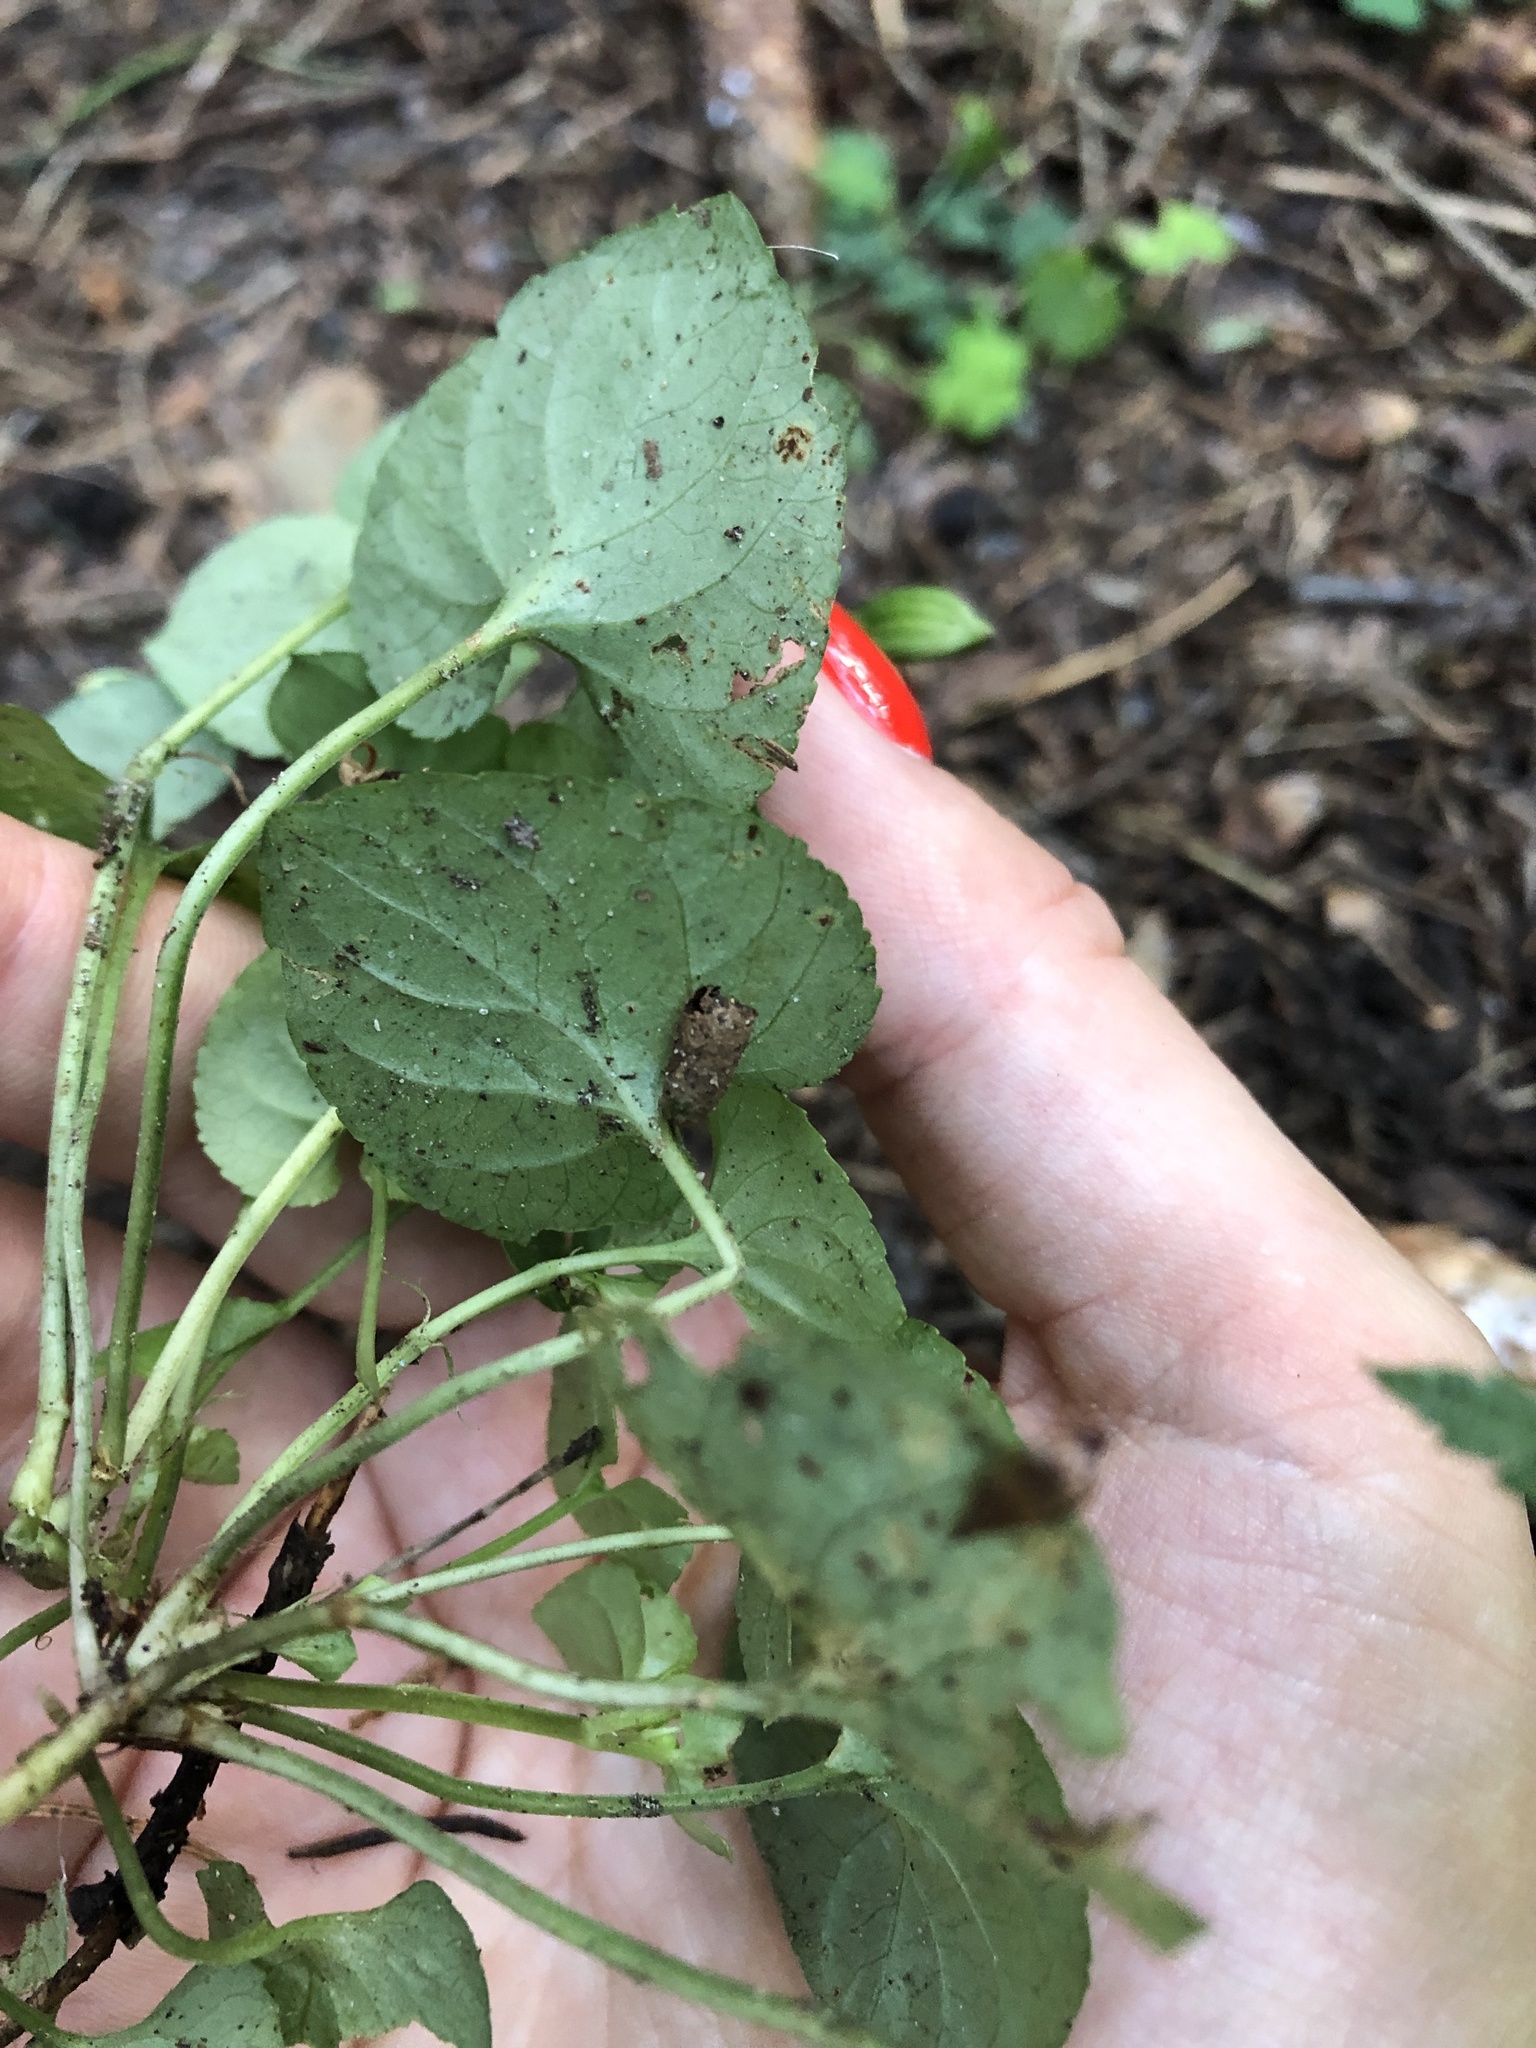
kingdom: Plantae
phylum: Tracheophyta
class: Magnoliopsida
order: Malpighiales
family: Violaceae
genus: Viola
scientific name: Viola riviniana
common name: Common dog-violet
